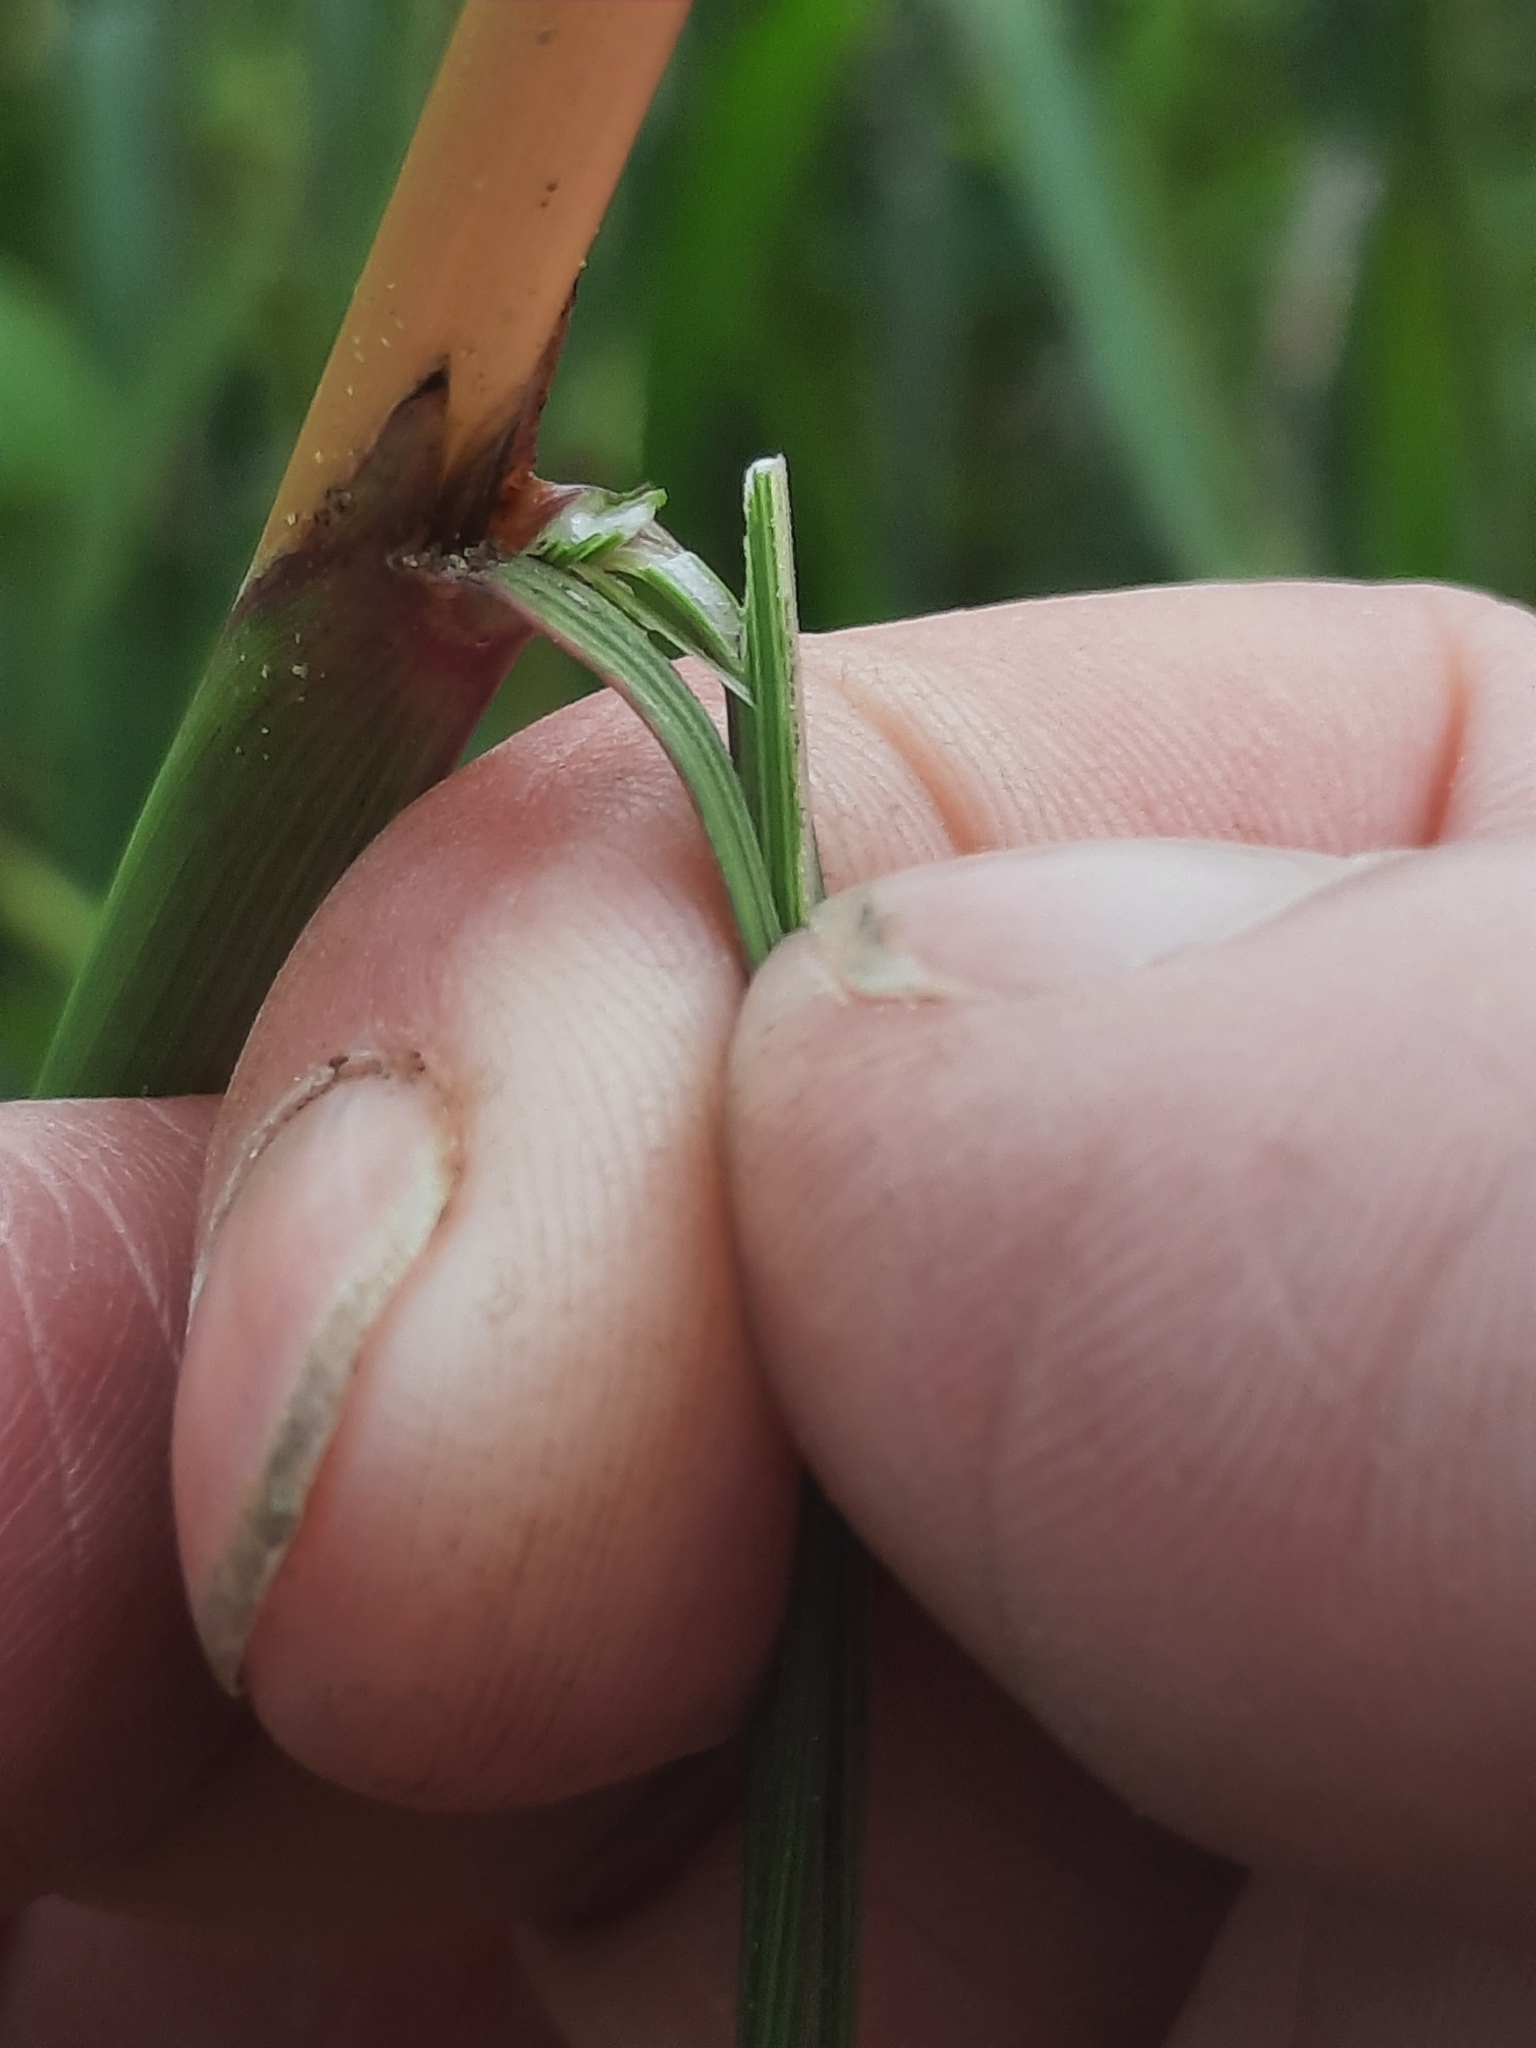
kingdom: Plantae
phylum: Tracheophyta
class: Liliopsida
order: Poales
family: Poaceae
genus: Sorghastrum
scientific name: Sorghastrum nutans
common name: Indian grass
